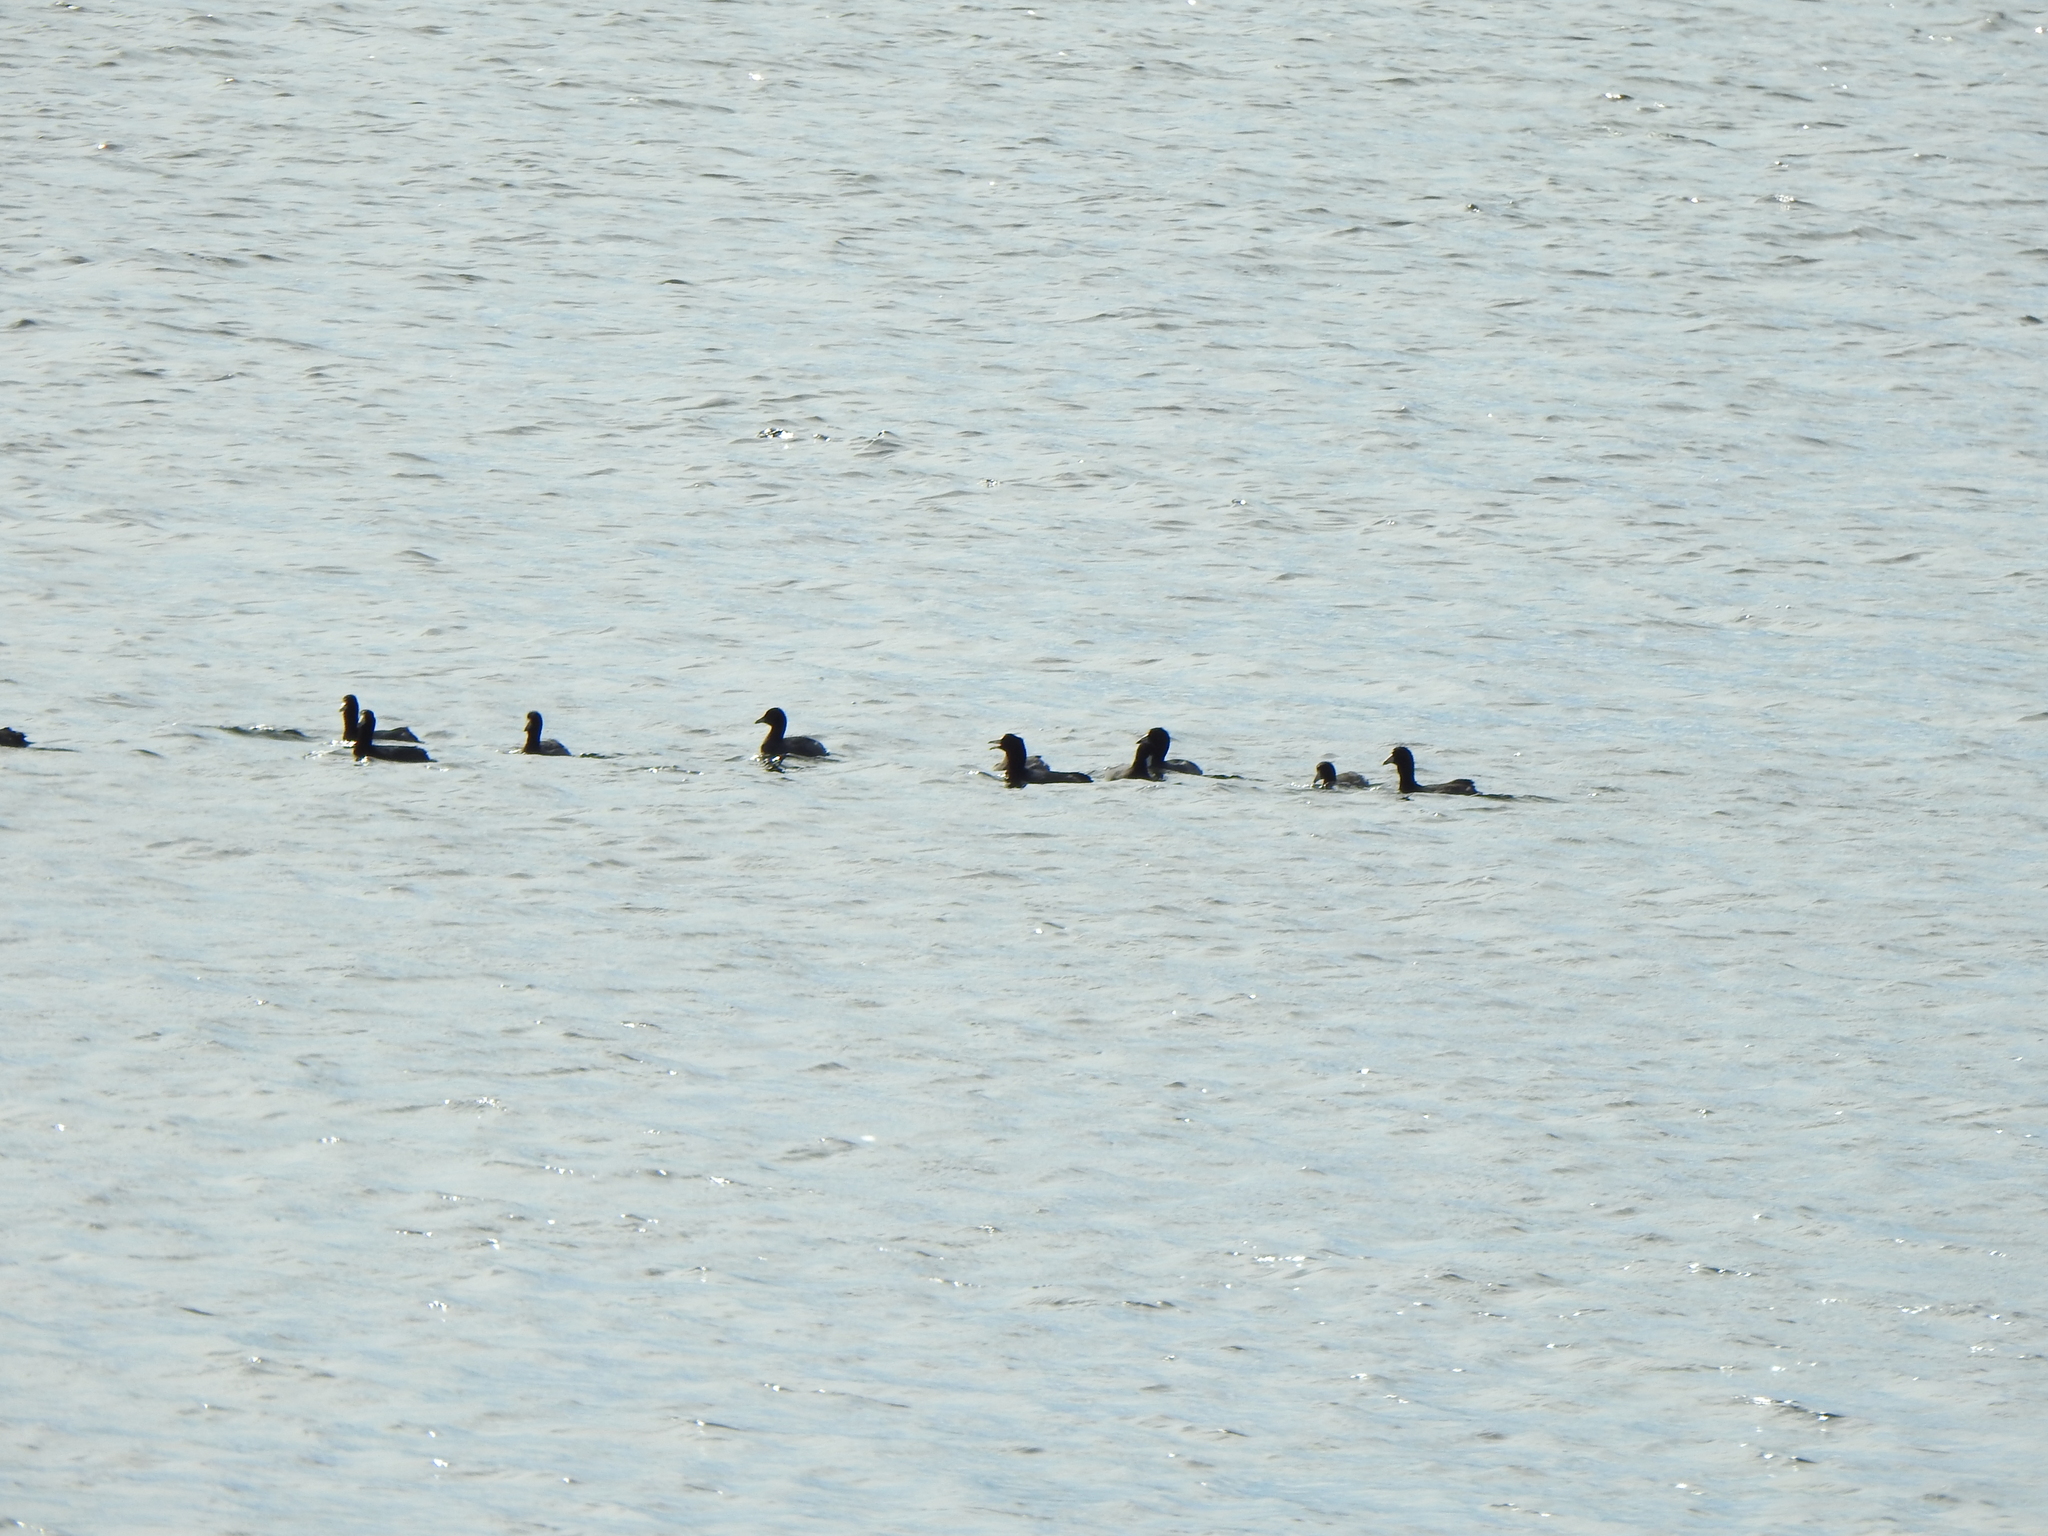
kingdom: Animalia
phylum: Chordata
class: Aves
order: Gruiformes
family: Rallidae
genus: Fulica
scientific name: Fulica americana
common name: American coot
